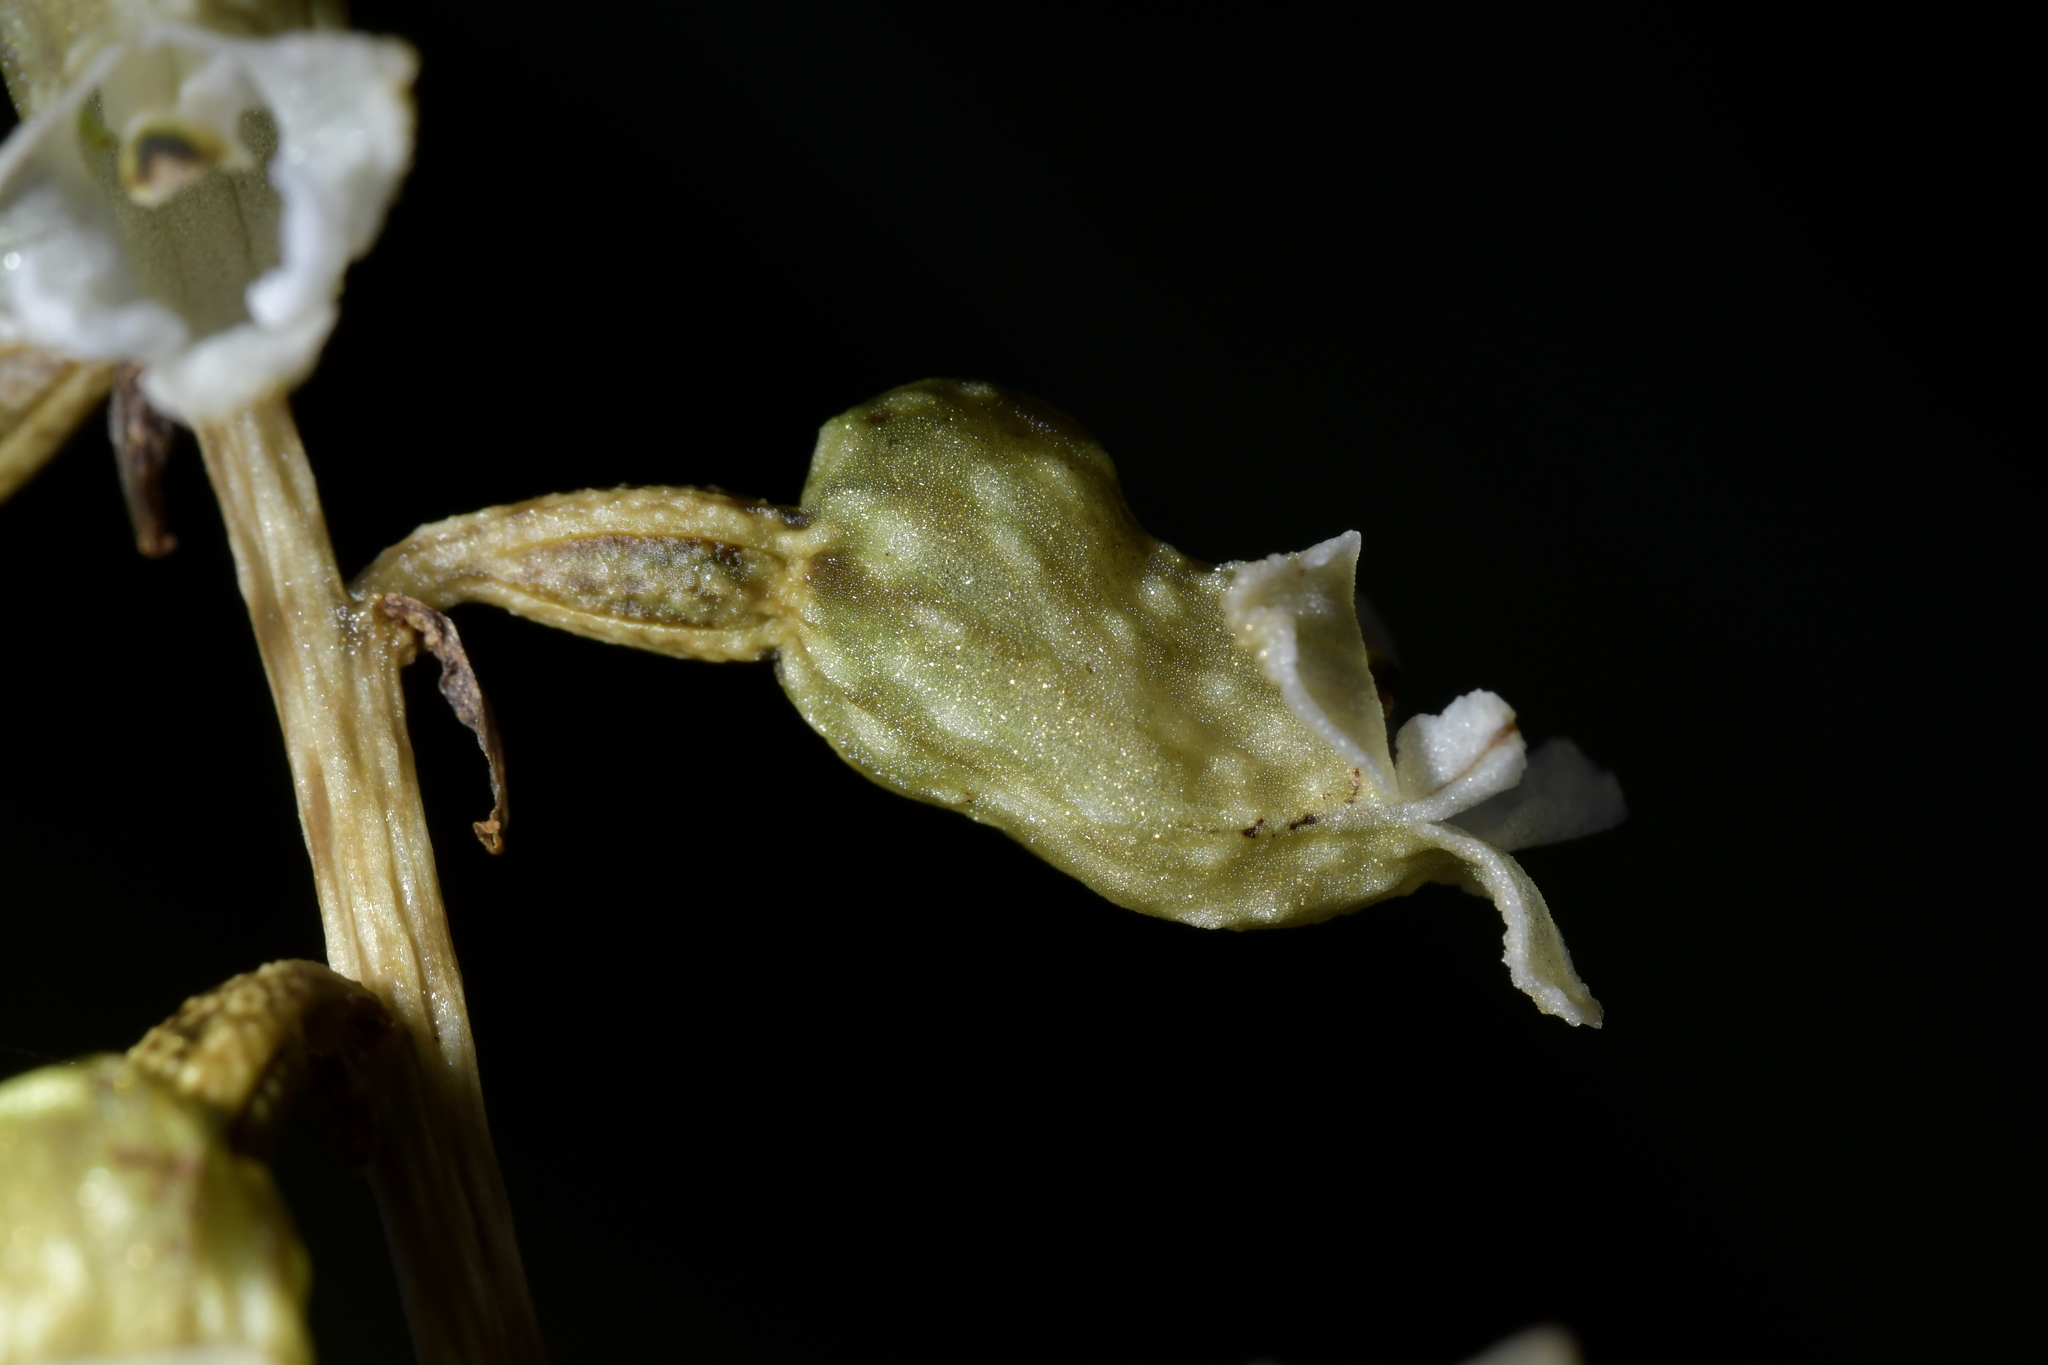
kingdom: Plantae
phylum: Tracheophyta
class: Liliopsida
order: Asparagales
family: Orchidaceae
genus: Gastrodia
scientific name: Gastrodia cunninghamii
